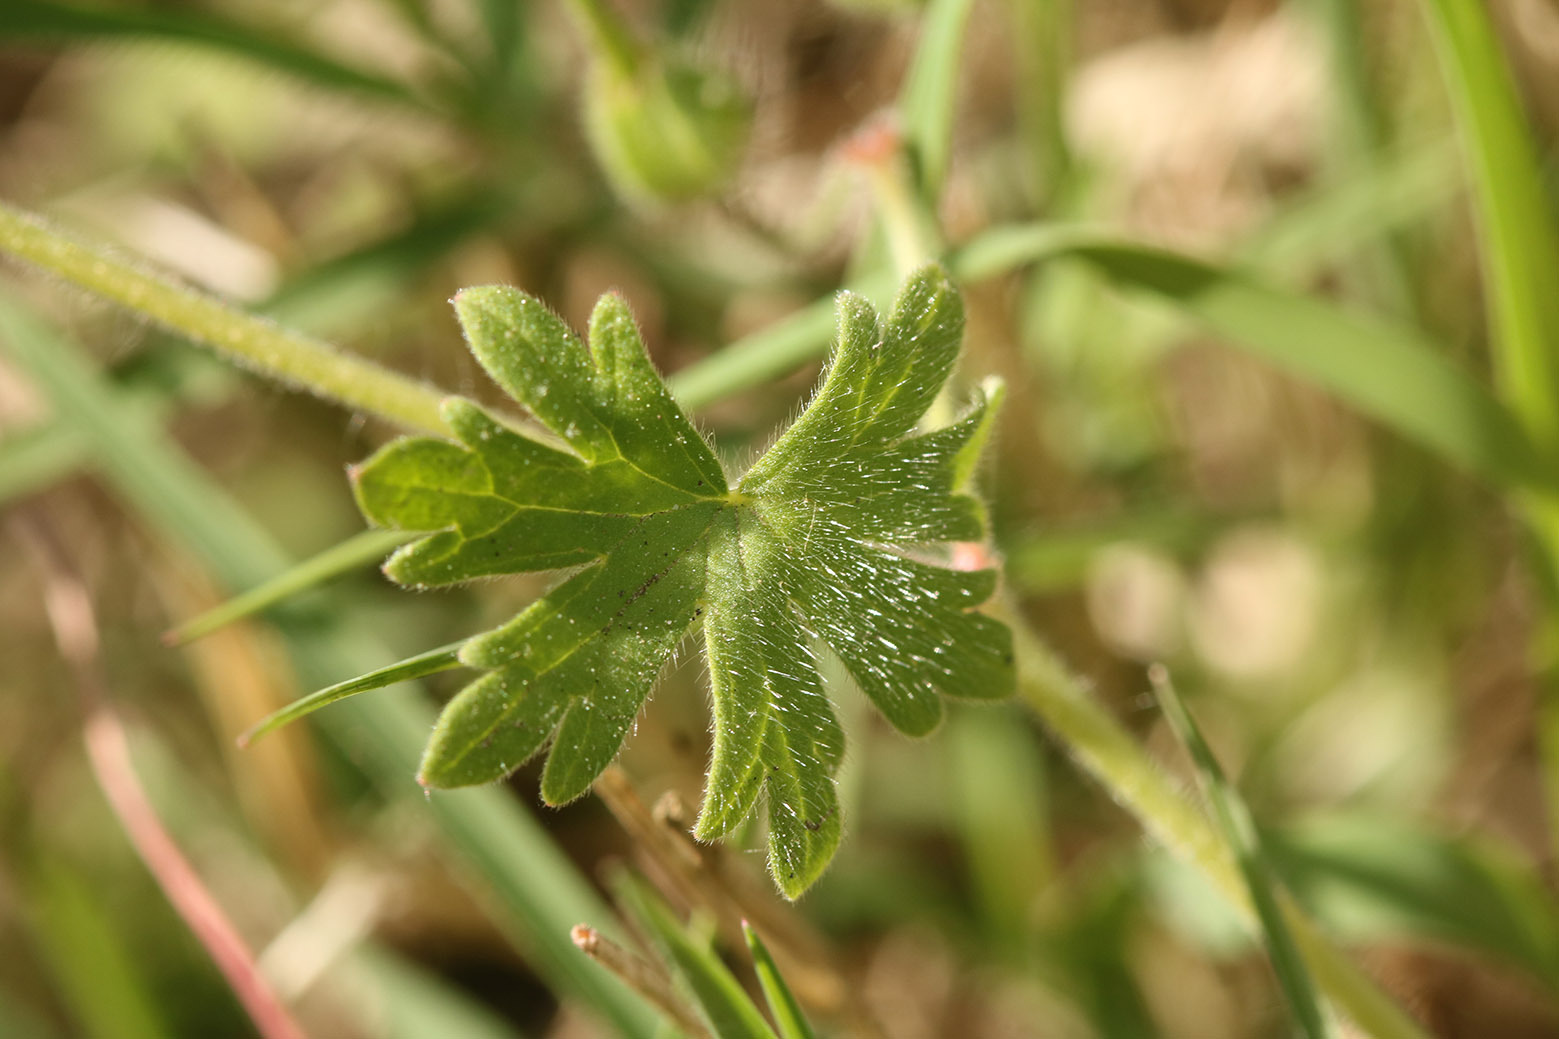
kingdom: Plantae
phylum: Tracheophyta
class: Magnoliopsida
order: Geraniales
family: Geraniaceae
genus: Geranium
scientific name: Geranium molle
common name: Dove's-foot crane's-bill
